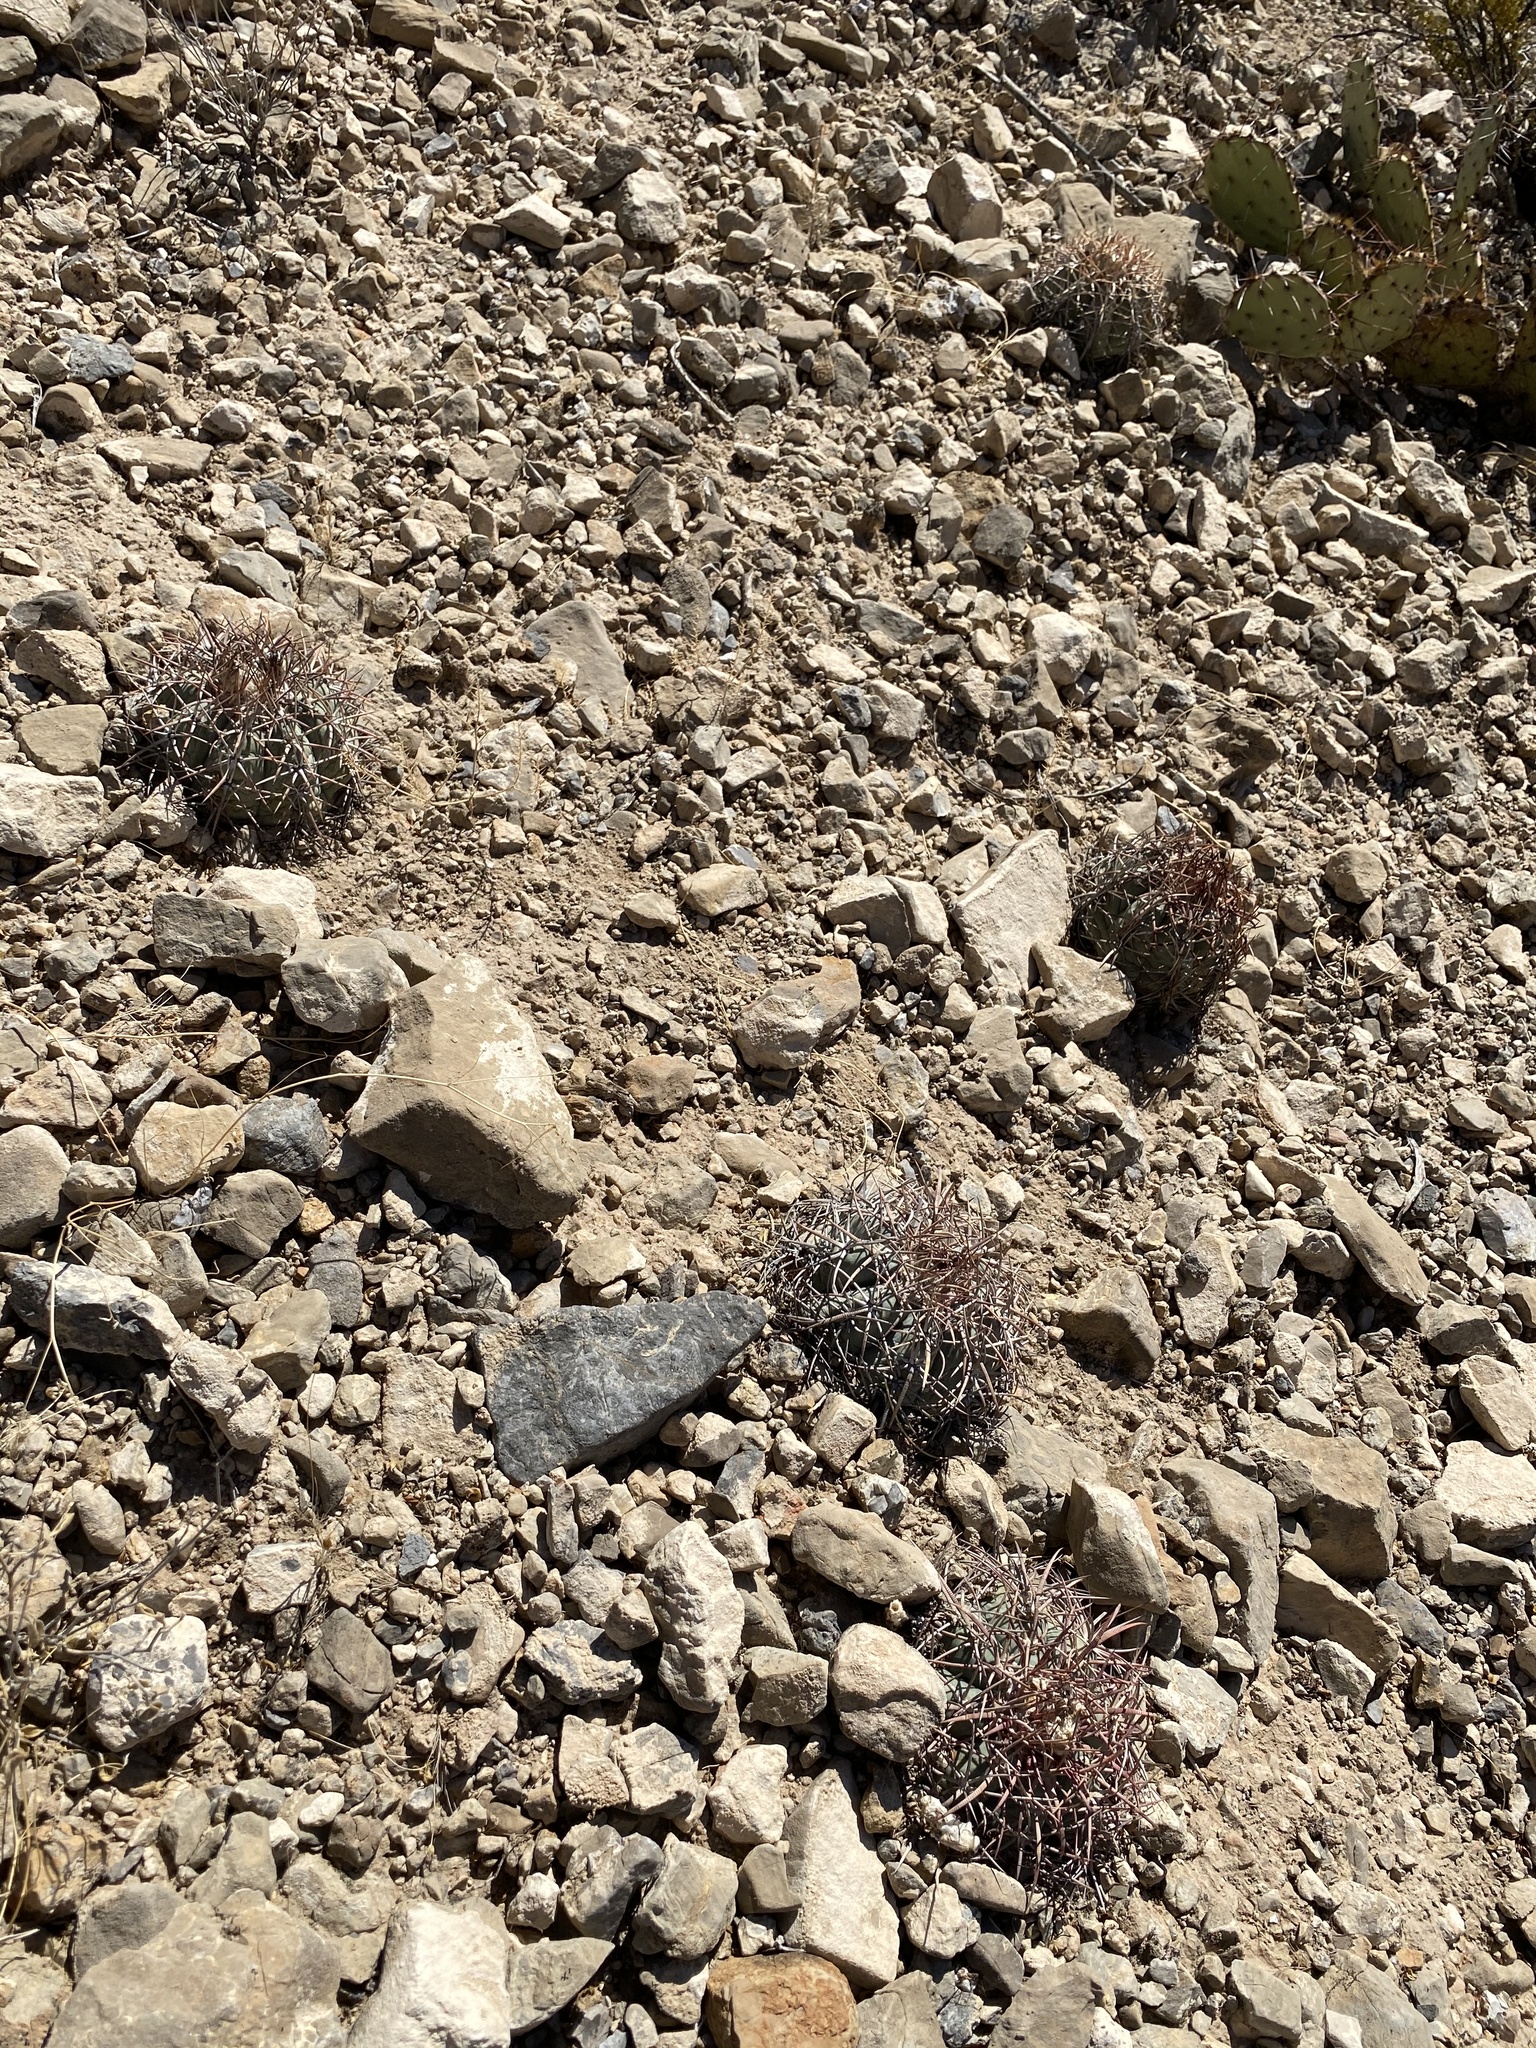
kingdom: Plantae
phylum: Tracheophyta
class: Magnoliopsida
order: Caryophyllales
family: Cactaceae
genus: Echinocactus
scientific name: Echinocactus horizonthalonius
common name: Devilshead
